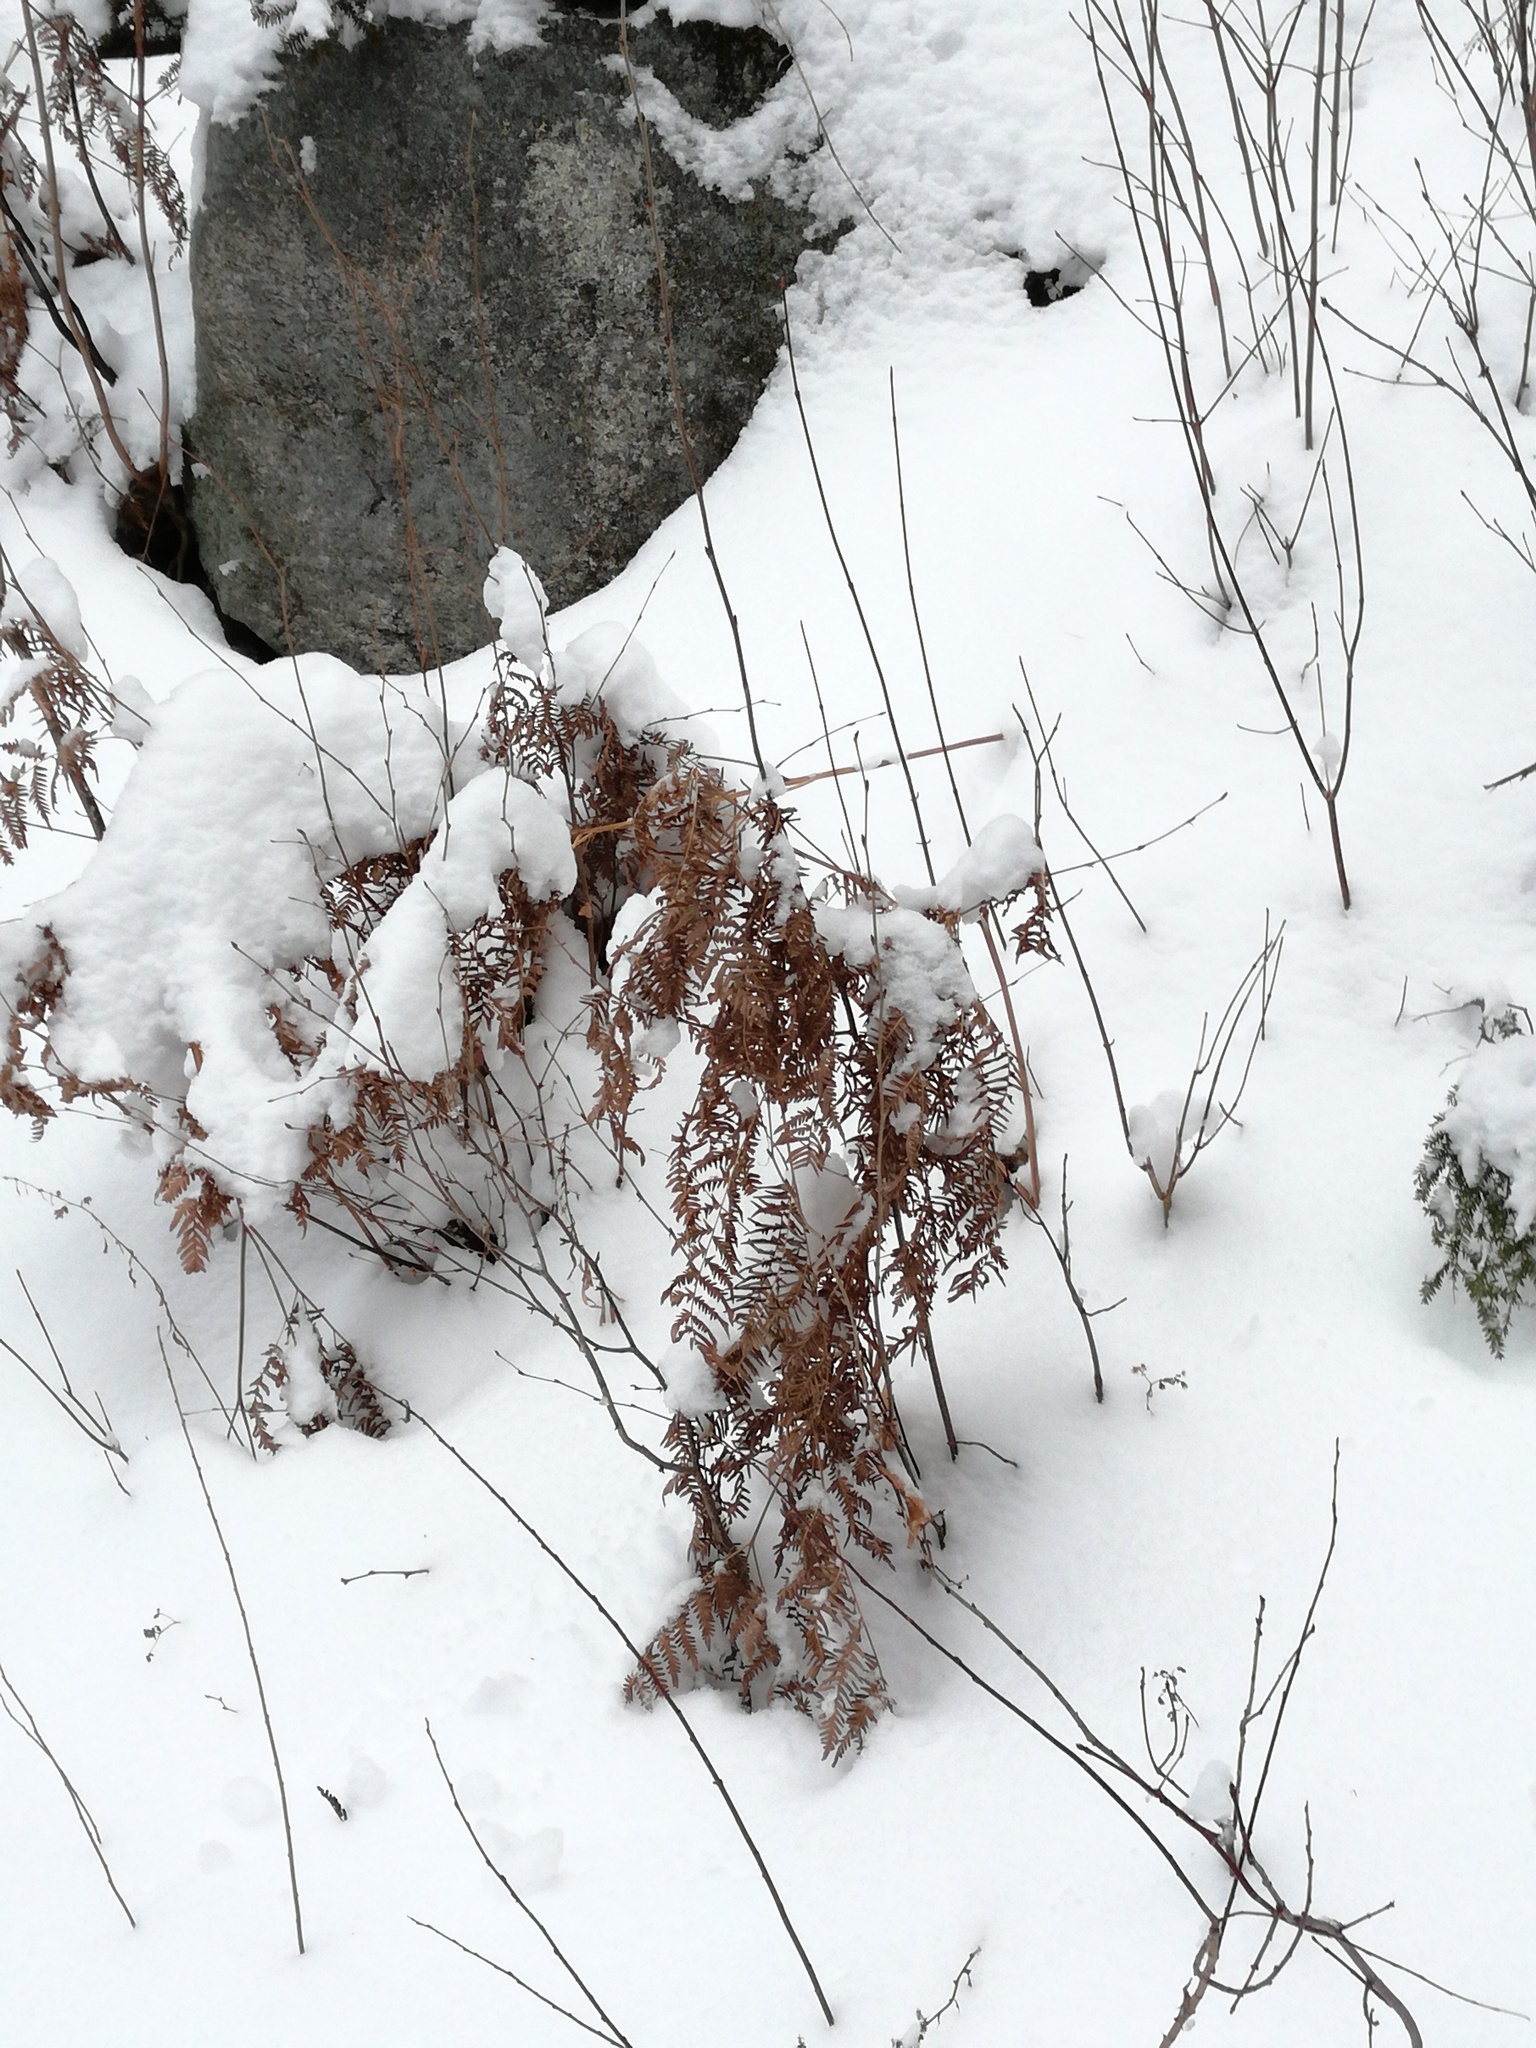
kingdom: Plantae
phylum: Tracheophyta
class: Polypodiopsida
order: Polypodiales
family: Dennstaedtiaceae
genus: Pteridium
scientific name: Pteridium aquilinum
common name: Bracken
